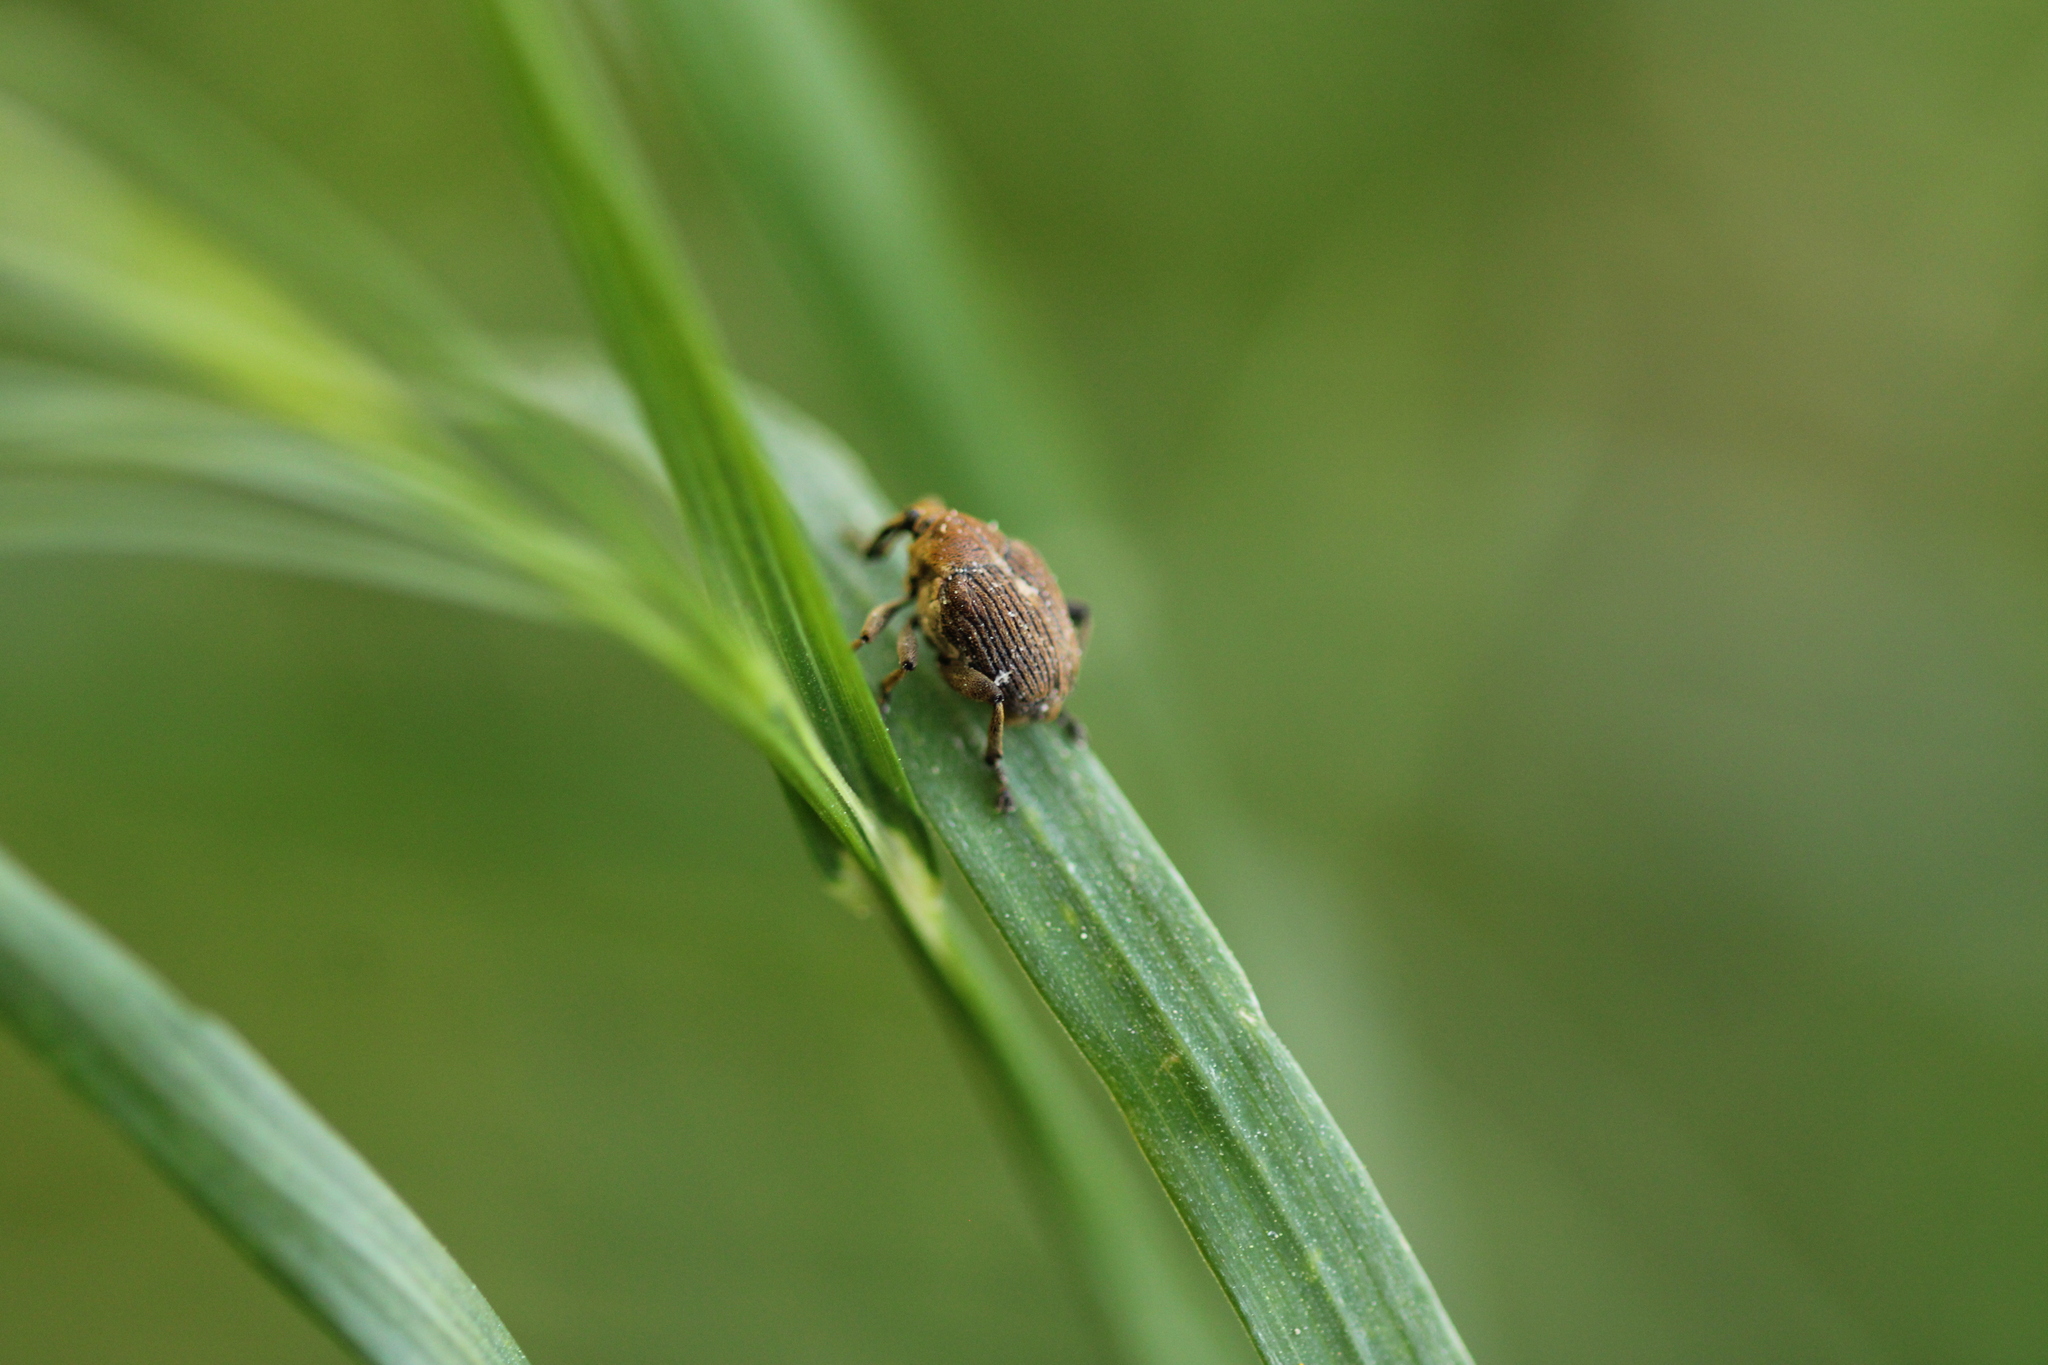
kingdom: Animalia
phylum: Arthropoda
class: Insecta
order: Coleoptera
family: Curculionidae
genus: Mononychus
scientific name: Mononychus punctumalbum
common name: Iris weevil
